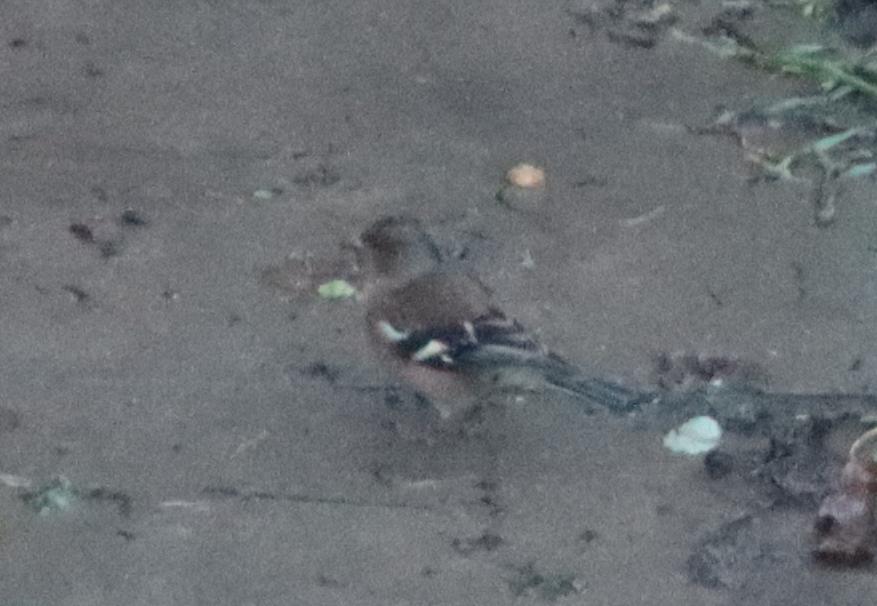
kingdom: Animalia
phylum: Chordata
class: Aves
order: Passeriformes
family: Fringillidae
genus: Fringilla
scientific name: Fringilla coelebs
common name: Common chaffinch
